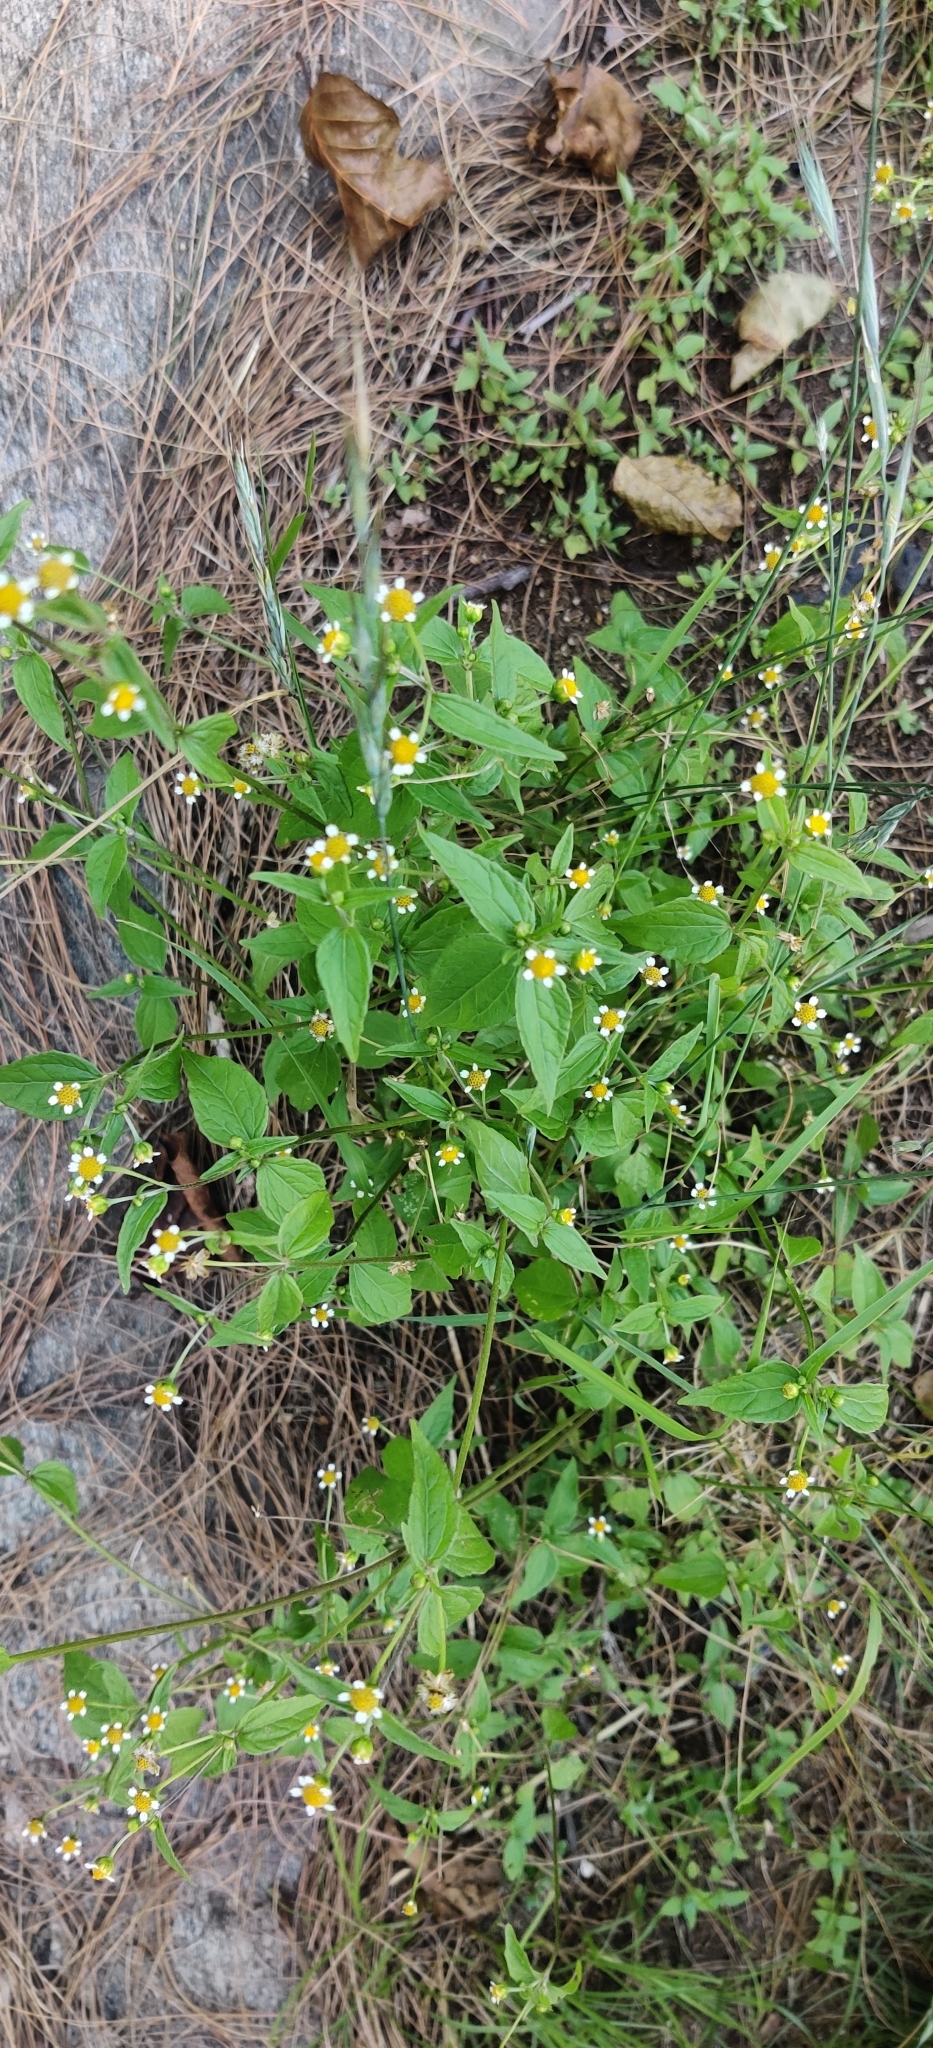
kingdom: Plantae
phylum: Tracheophyta
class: Magnoliopsida
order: Asterales
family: Asteraceae
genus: Galinsoga
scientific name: Galinsoga quadriradiata
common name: Shaggy soldier
